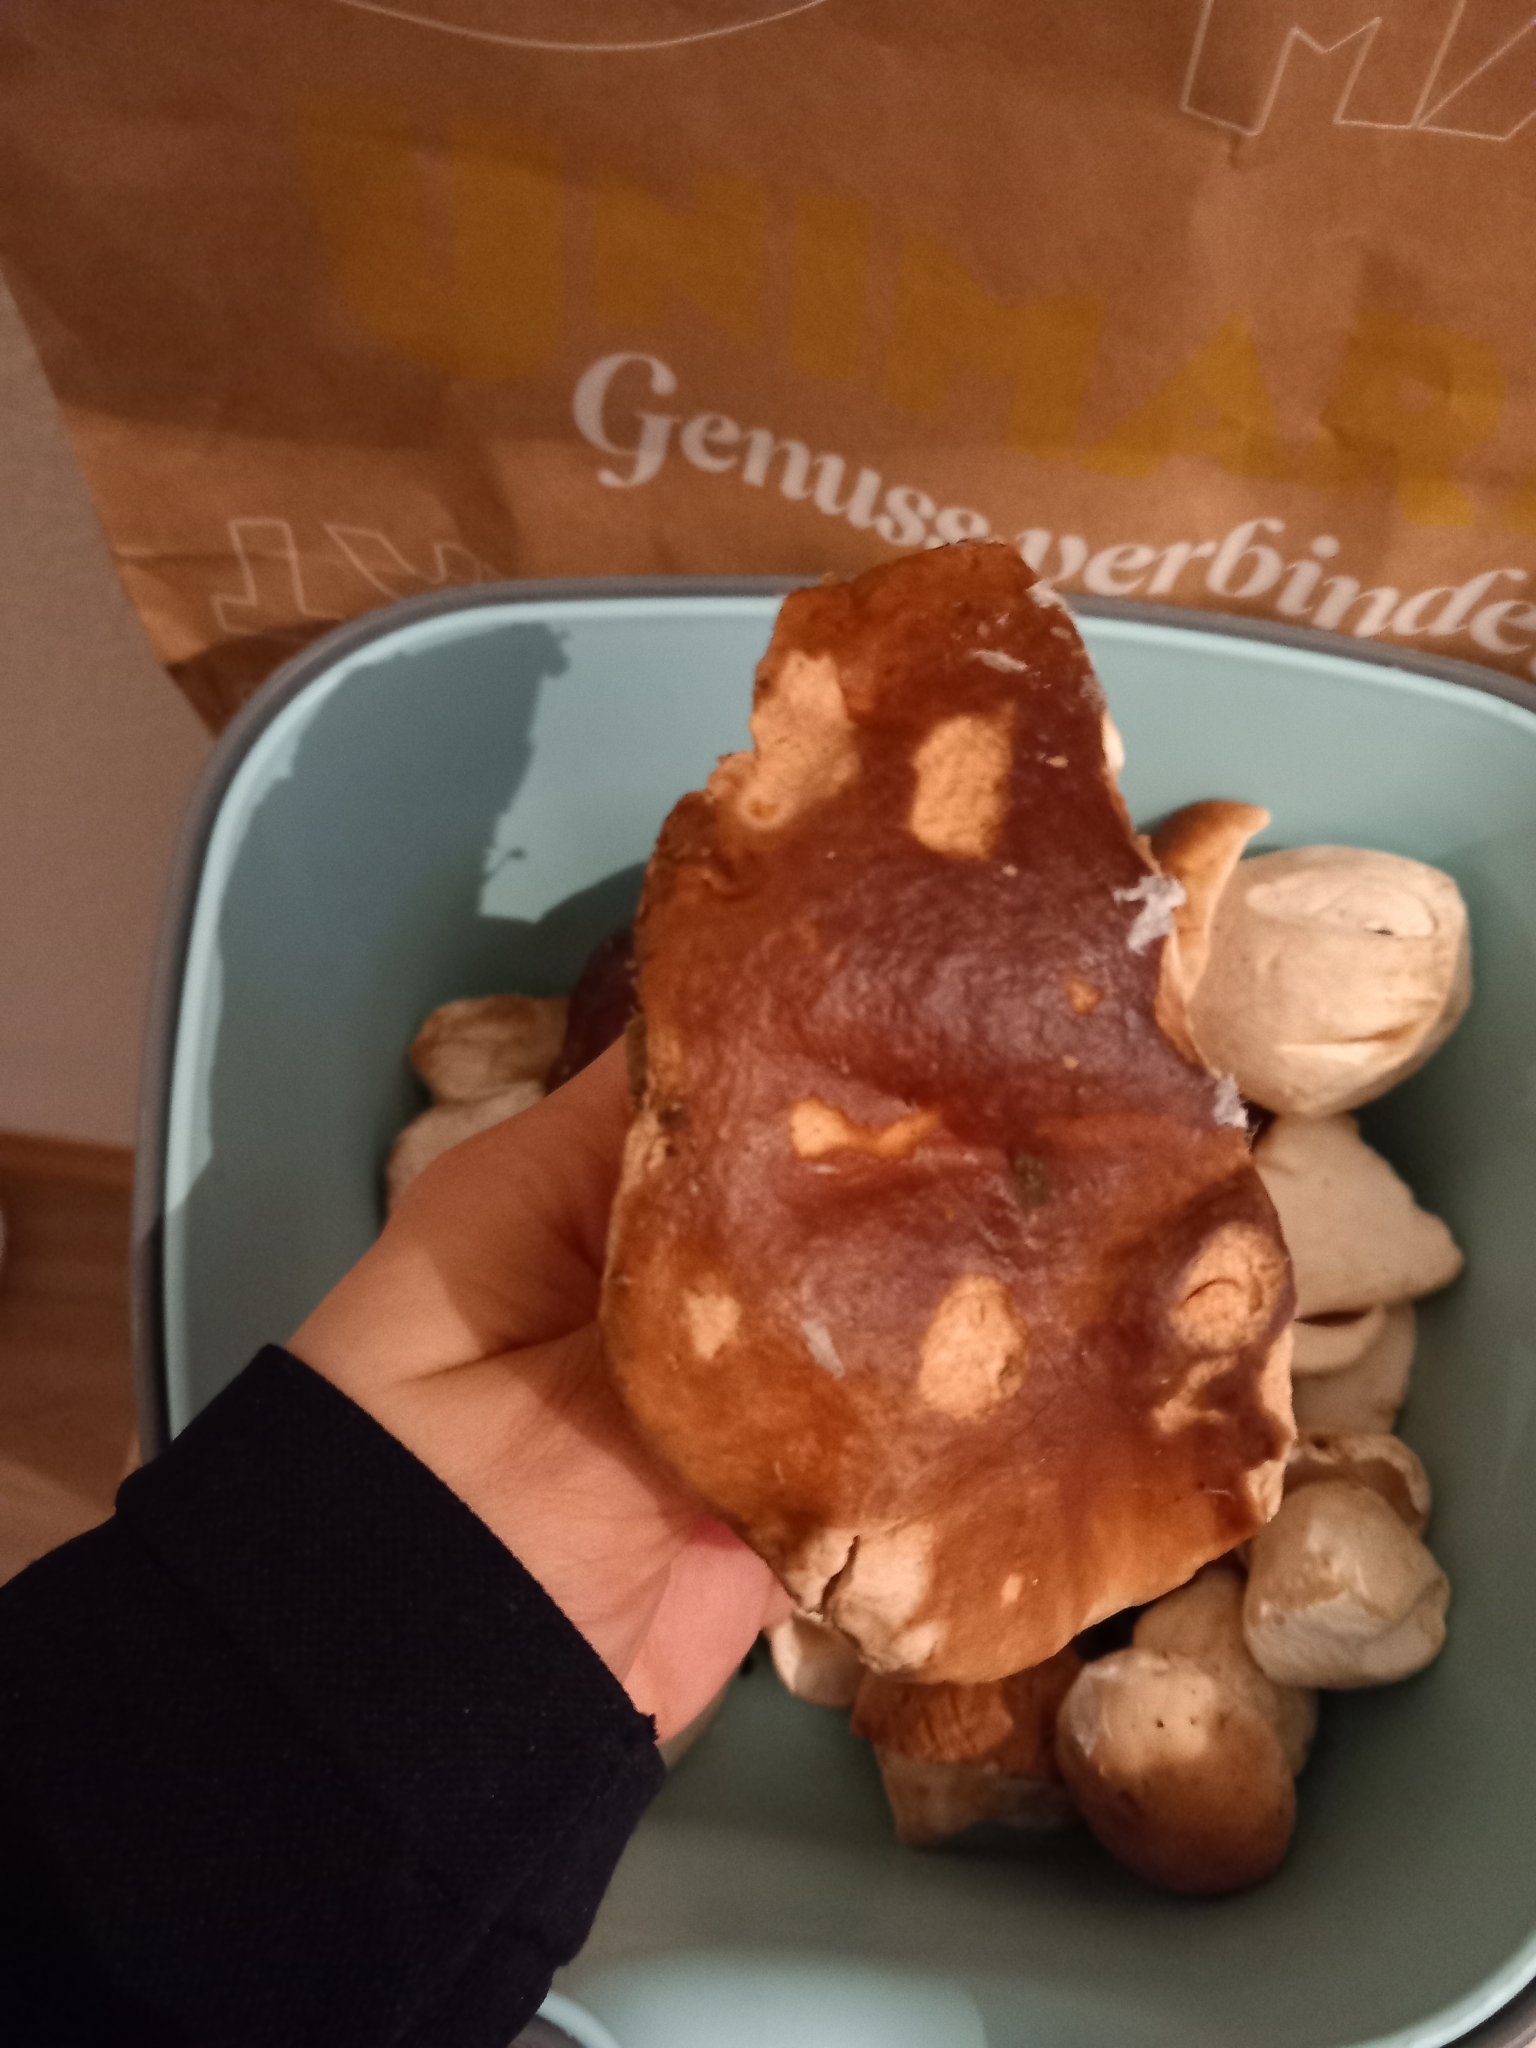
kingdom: Fungi
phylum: Basidiomycota
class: Agaricomycetes
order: Boletales
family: Boletaceae
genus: Boletus
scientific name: Boletus edulis
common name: Cep
